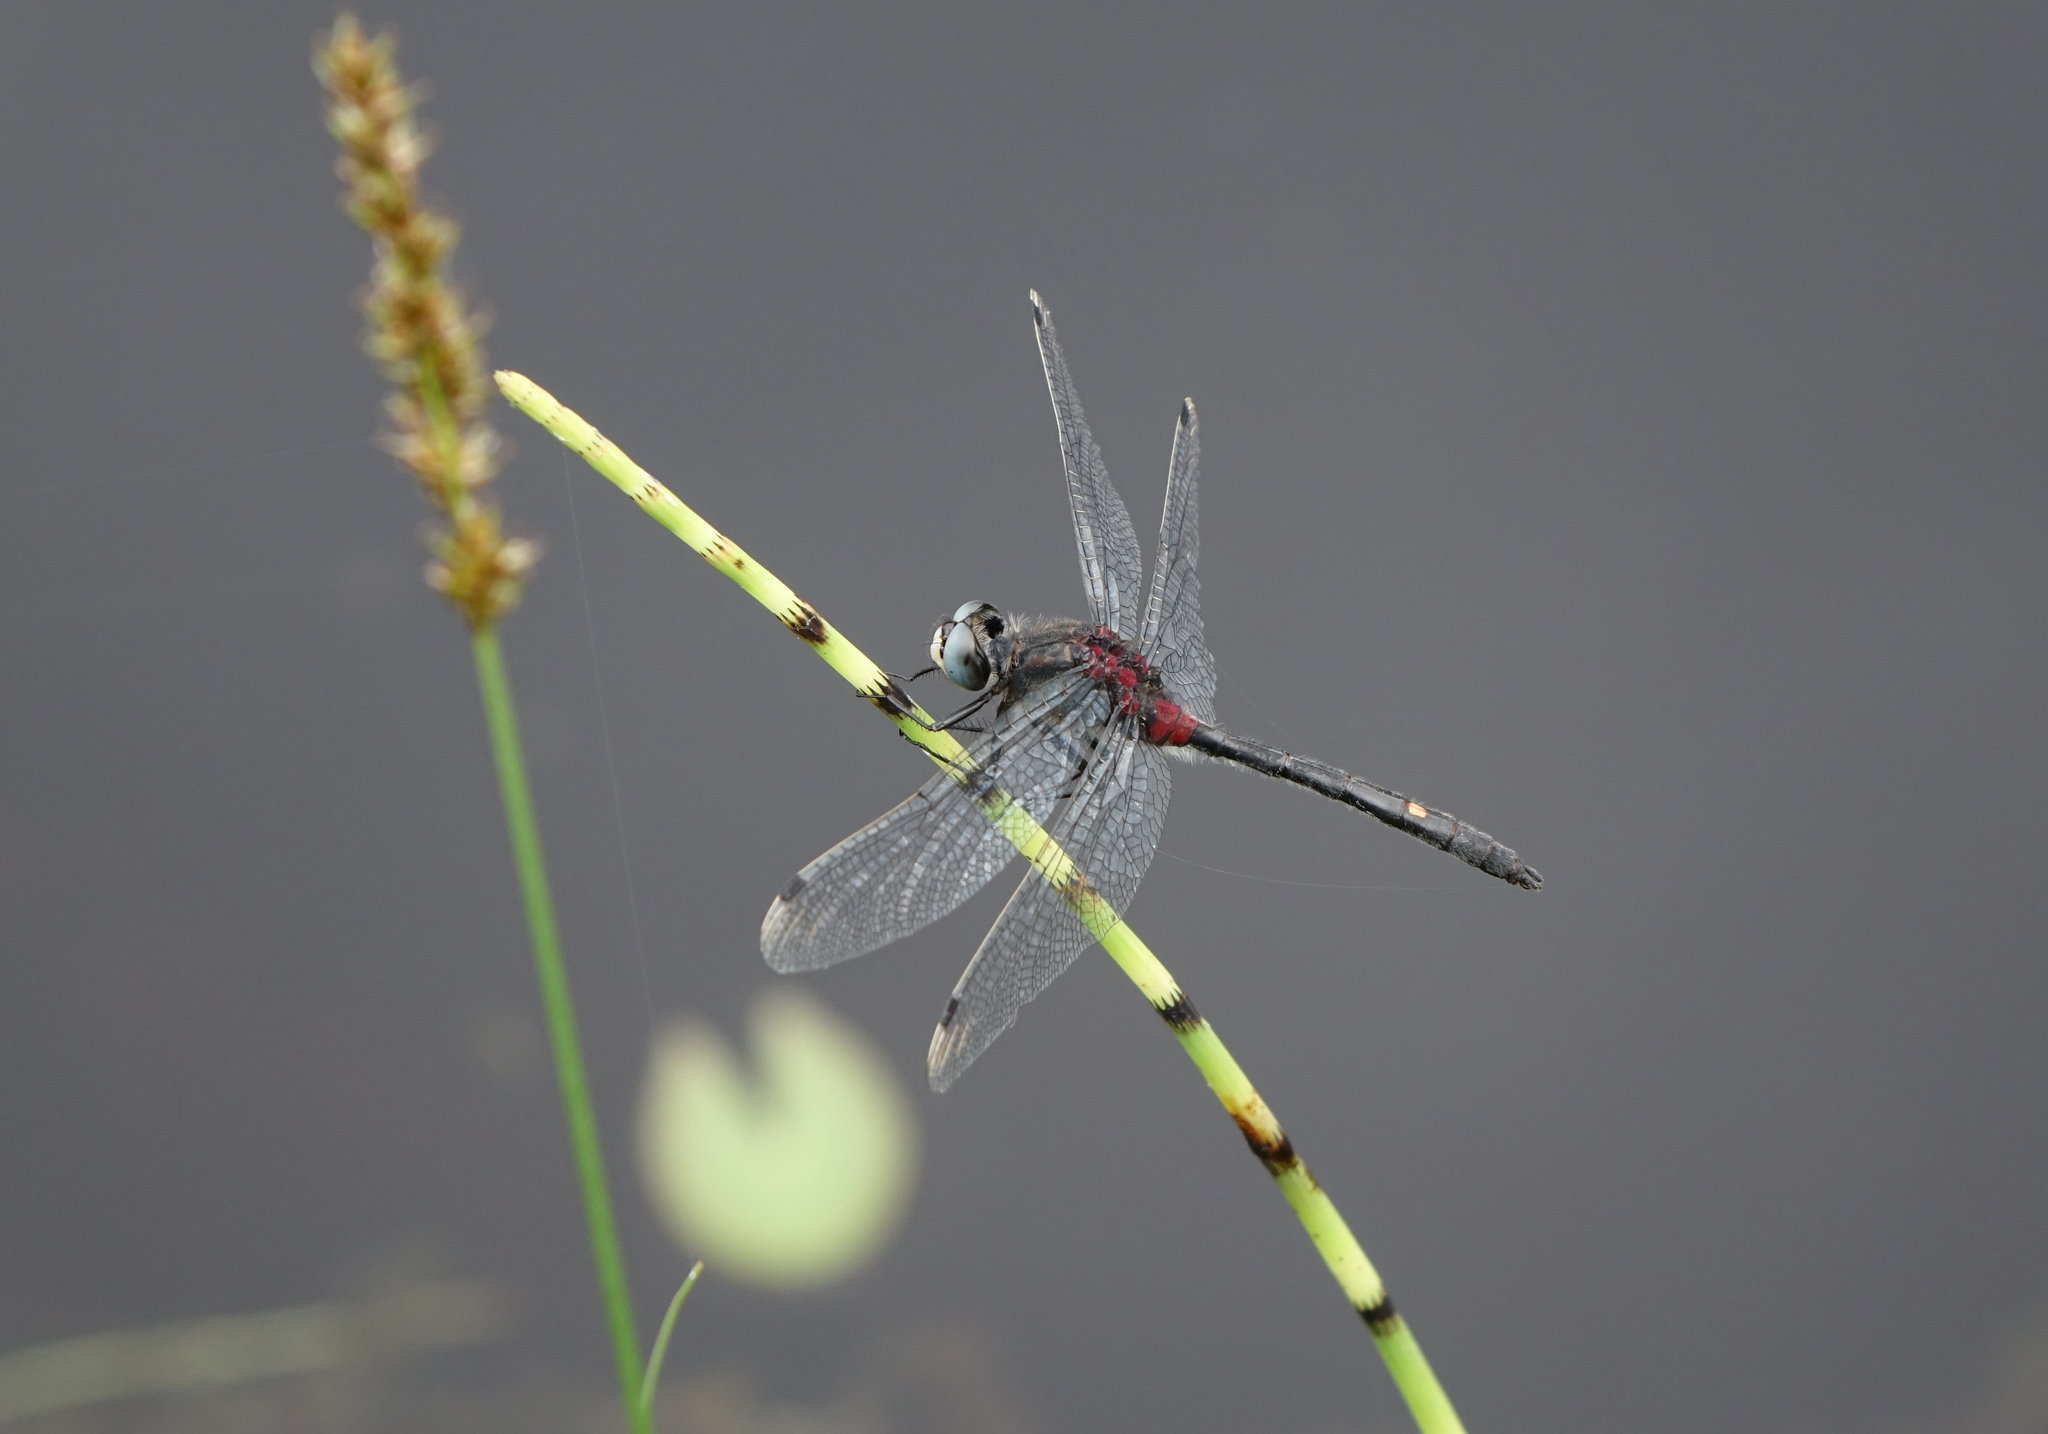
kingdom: Plantae
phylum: Tracheophyta
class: Polypodiopsida
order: Equisetales
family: Equisetaceae
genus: Equisetum
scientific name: Equisetum fluviatile
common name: Water horsetail
